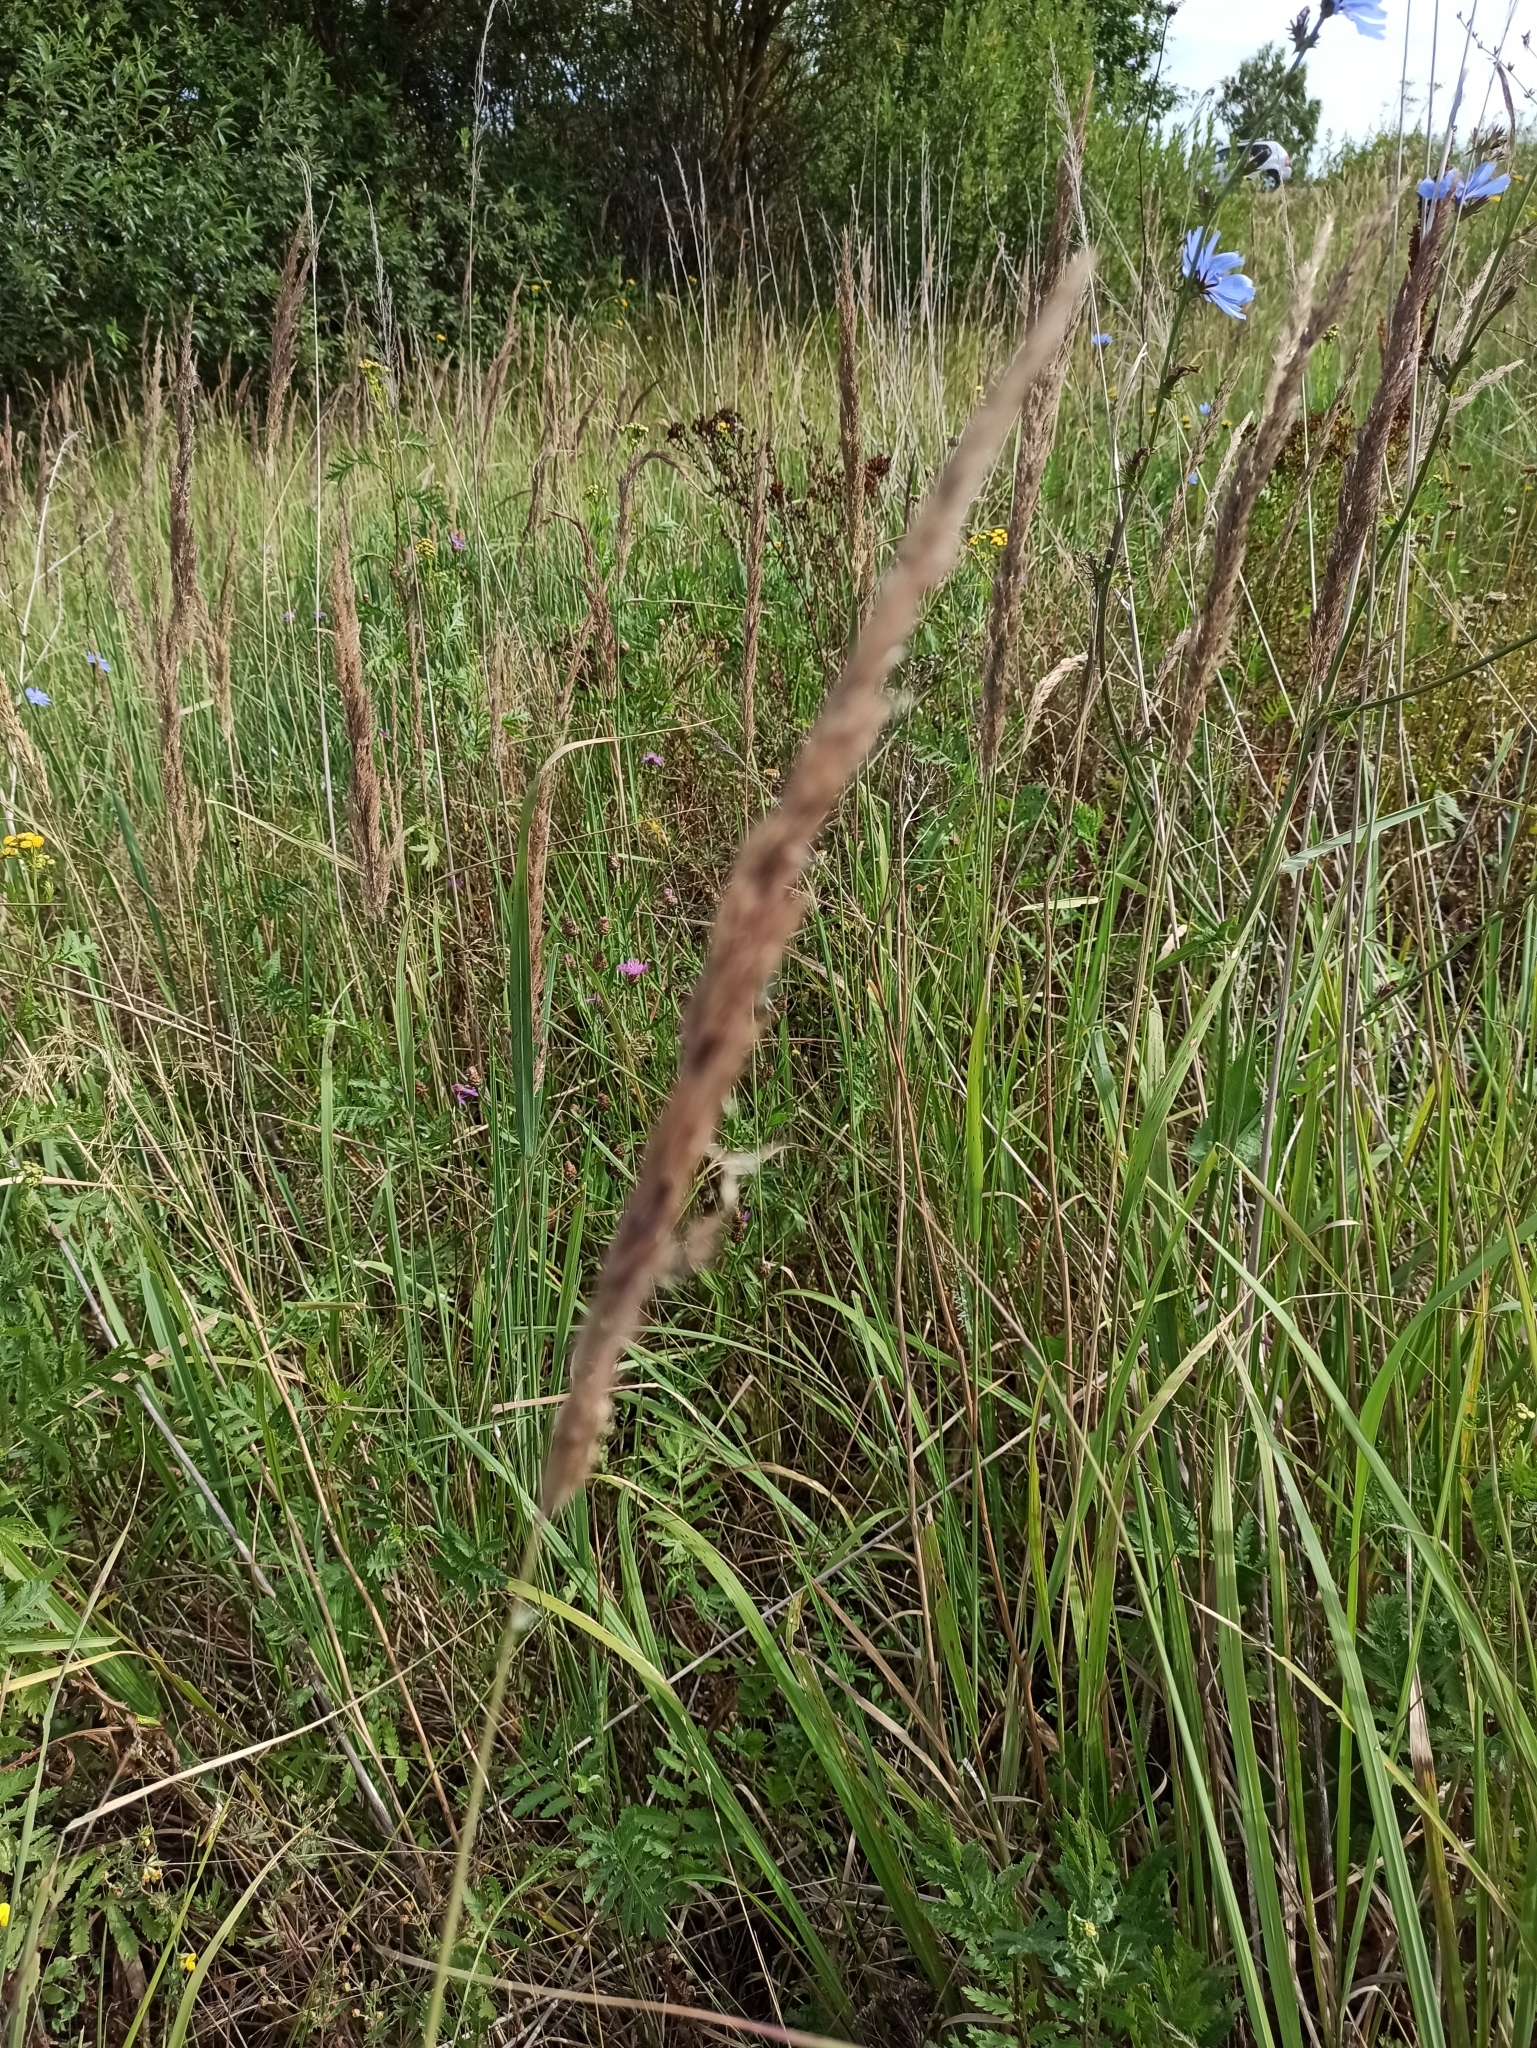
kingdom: Plantae
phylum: Tracheophyta
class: Liliopsida
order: Poales
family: Poaceae
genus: Calamagrostis
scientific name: Calamagrostis epigejos
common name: Wood small-reed
